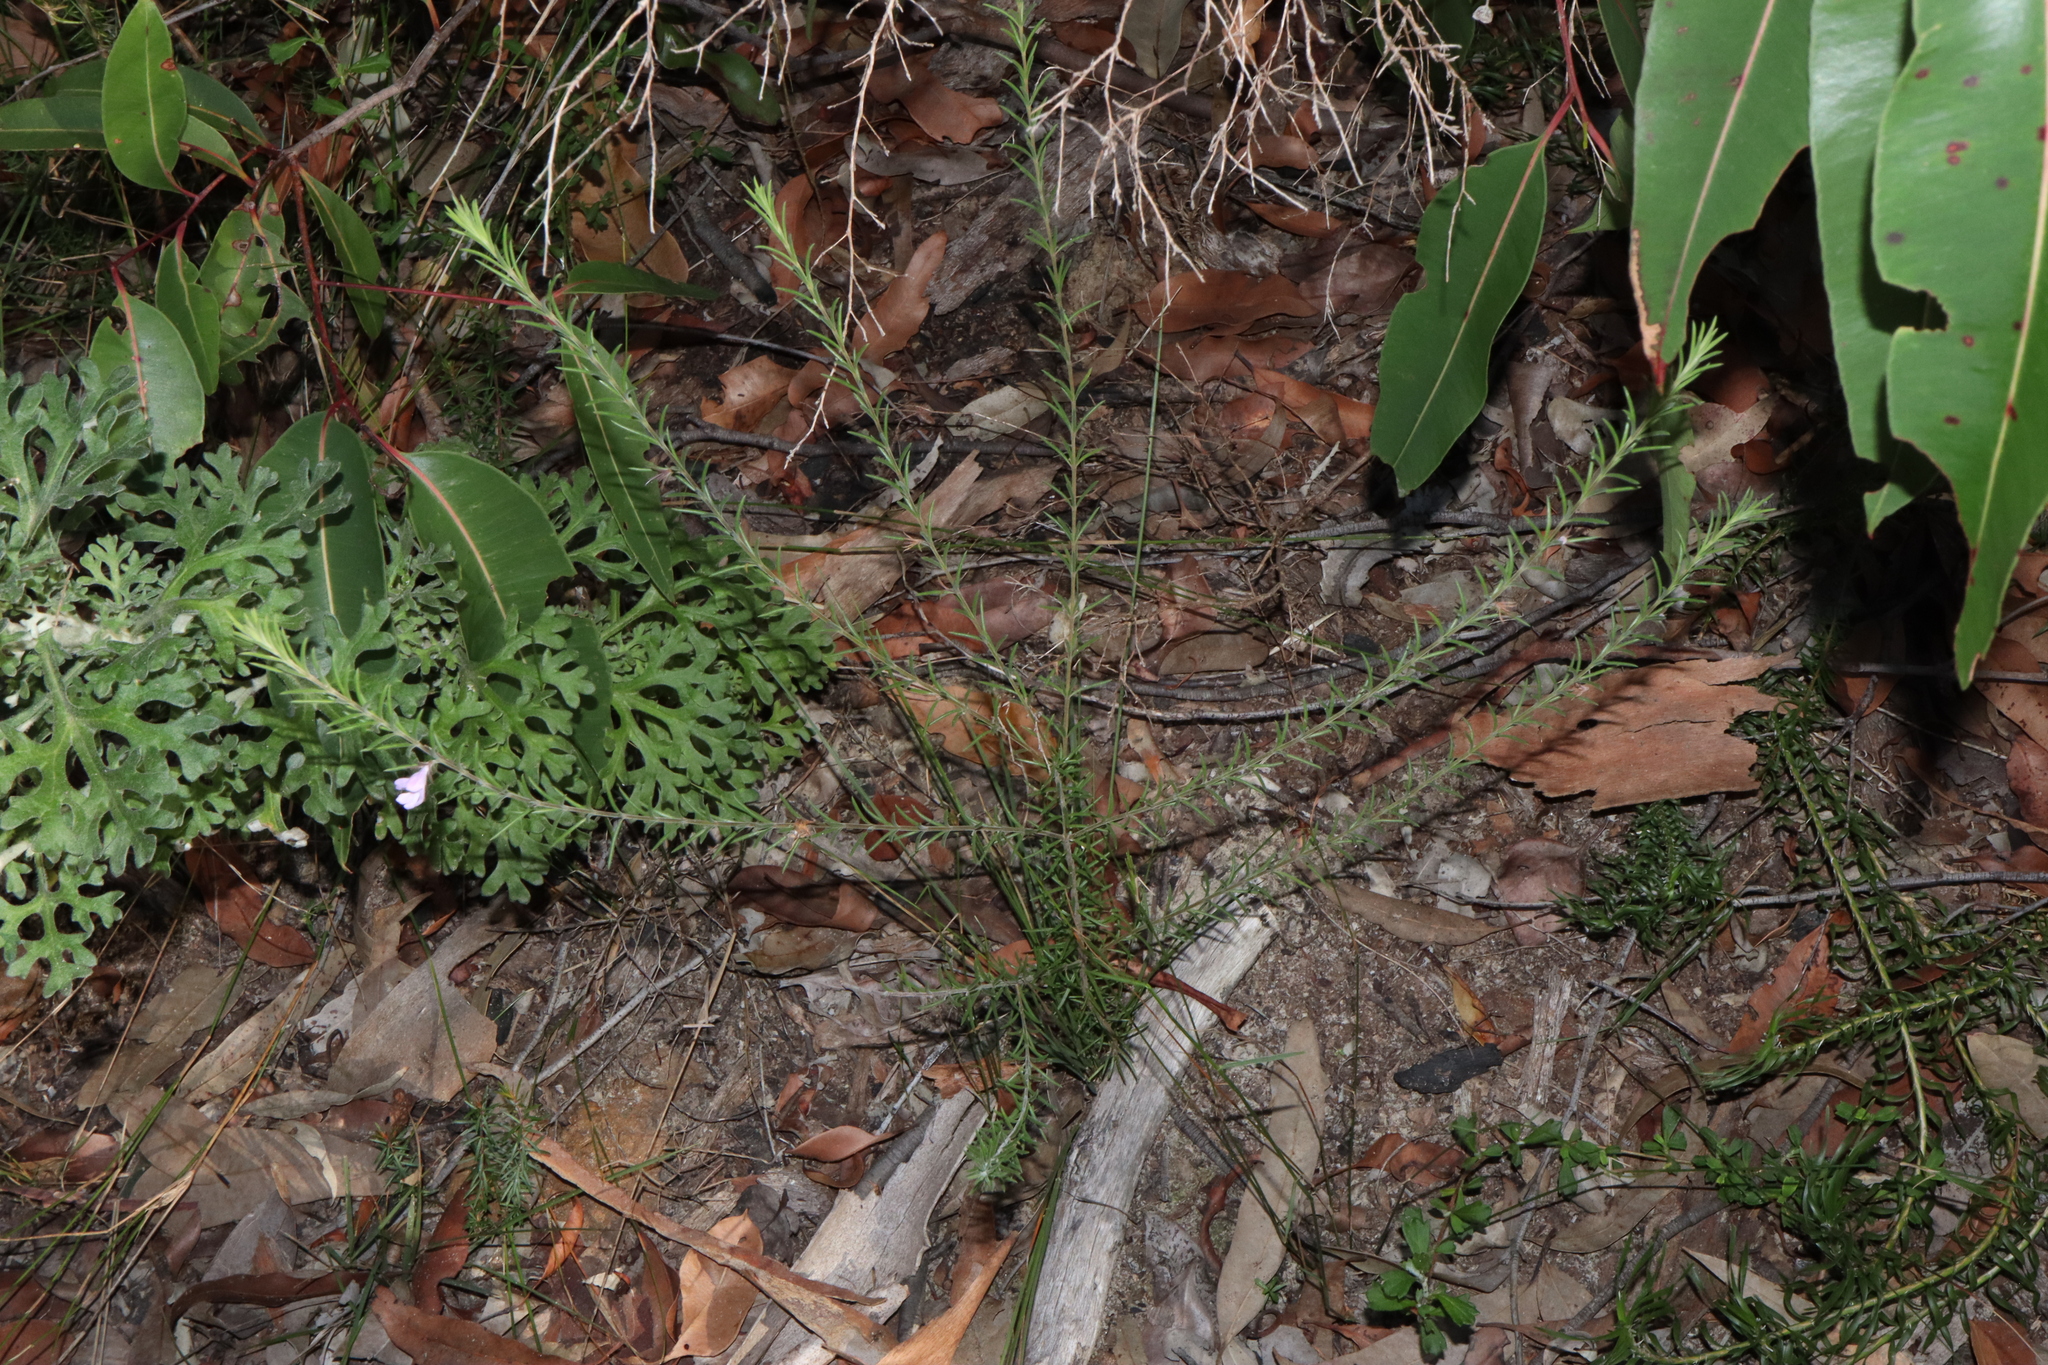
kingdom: Plantae
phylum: Tracheophyta
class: Magnoliopsida
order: Lamiales
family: Lamiaceae
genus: Hemigenia
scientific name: Hemigenia purpurea
